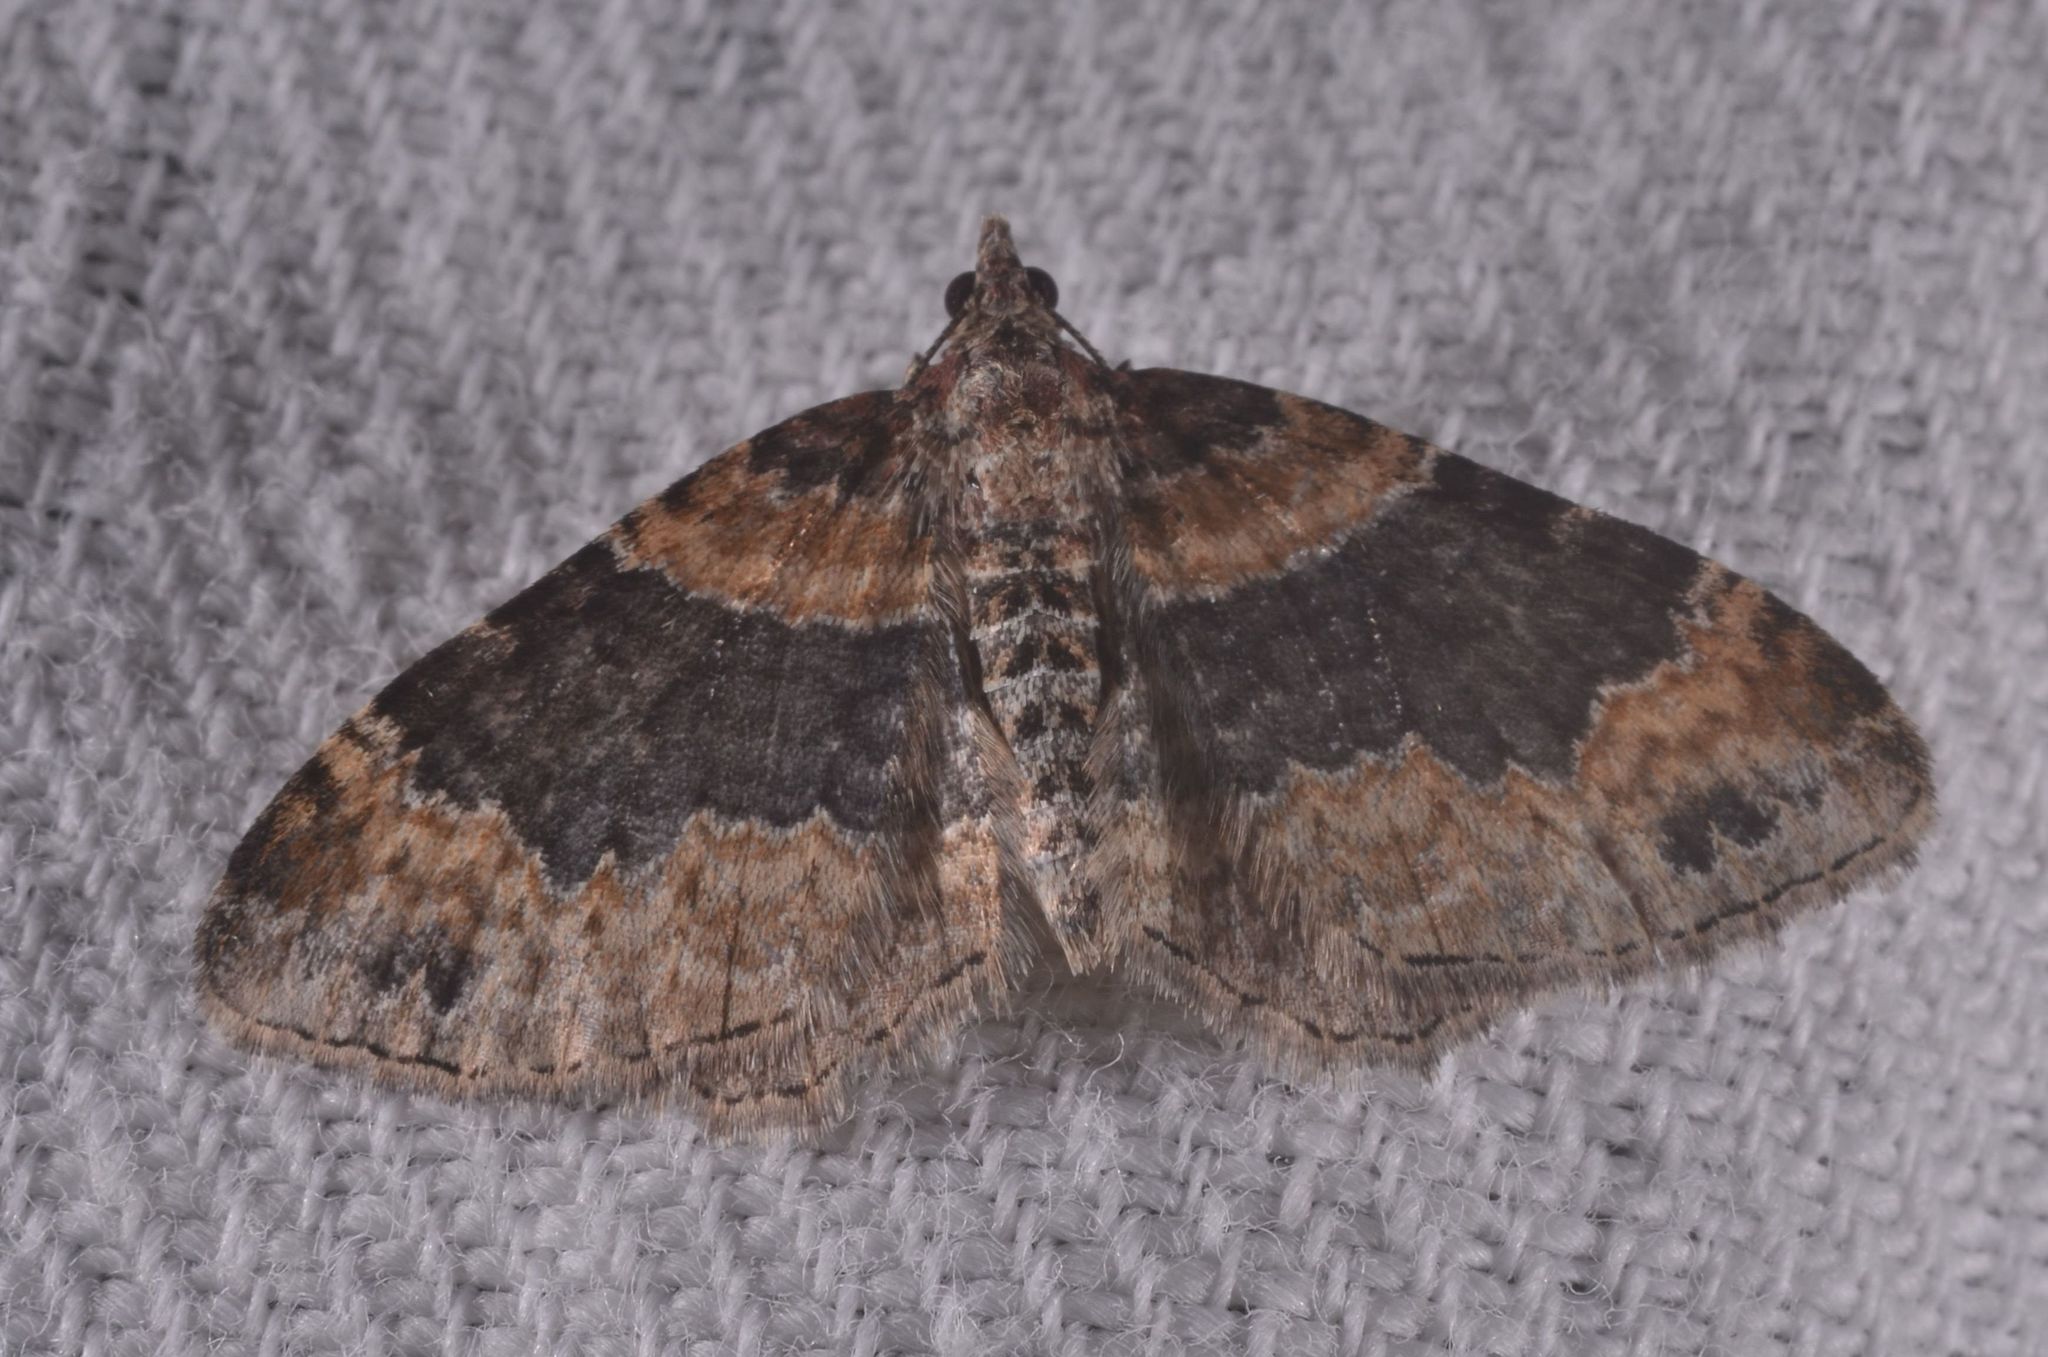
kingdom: Animalia
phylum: Arthropoda
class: Insecta
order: Lepidoptera
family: Geometridae
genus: Xanthorhoe
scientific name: Xanthorhoe ferrugata
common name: Dark-barred twin-spot carpet
